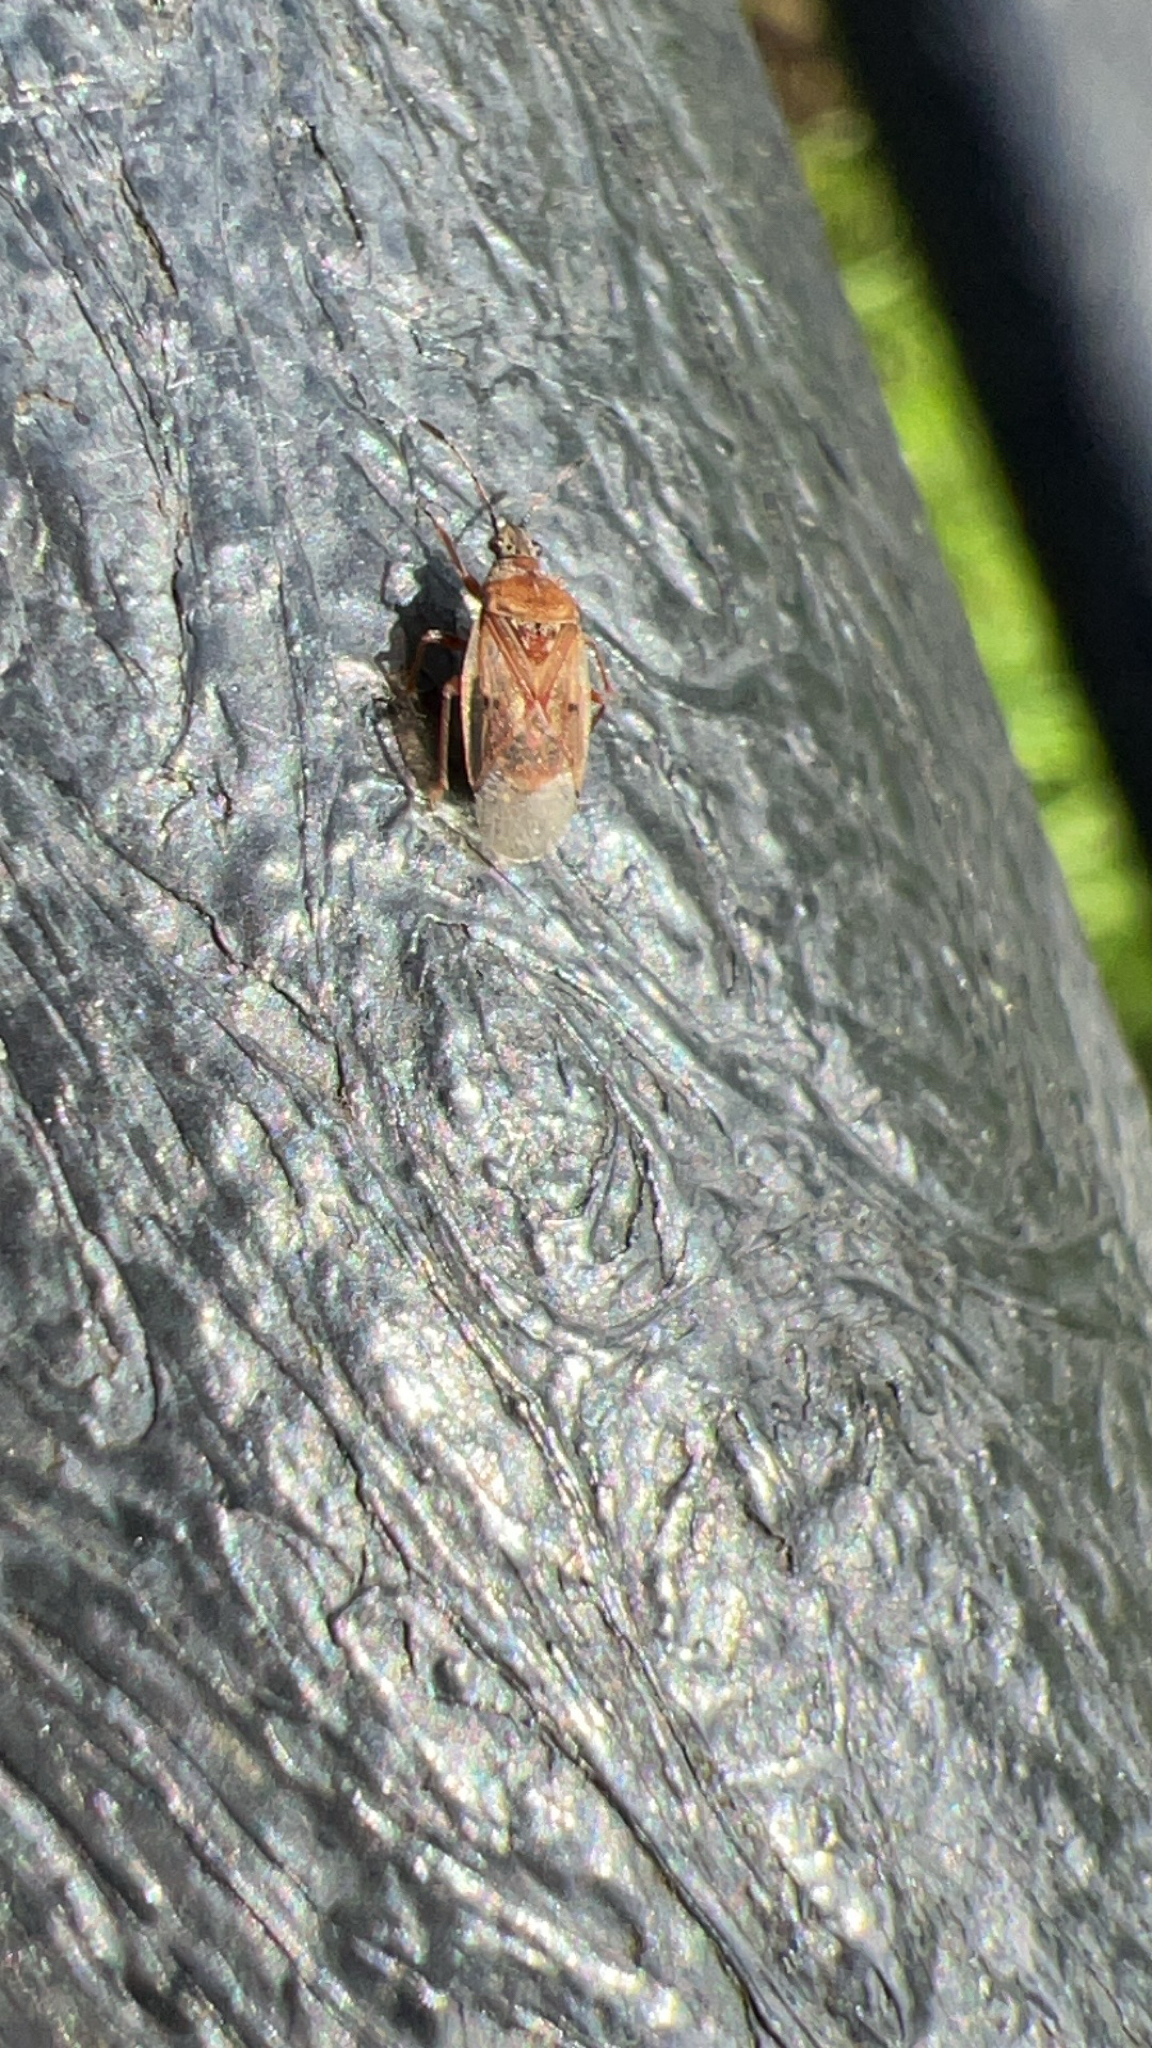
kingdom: Animalia
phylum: Arthropoda
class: Insecta
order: Hemiptera
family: Lygaeidae
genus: Kleidocerys
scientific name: Kleidocerys resedae
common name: Birch catkin bug
